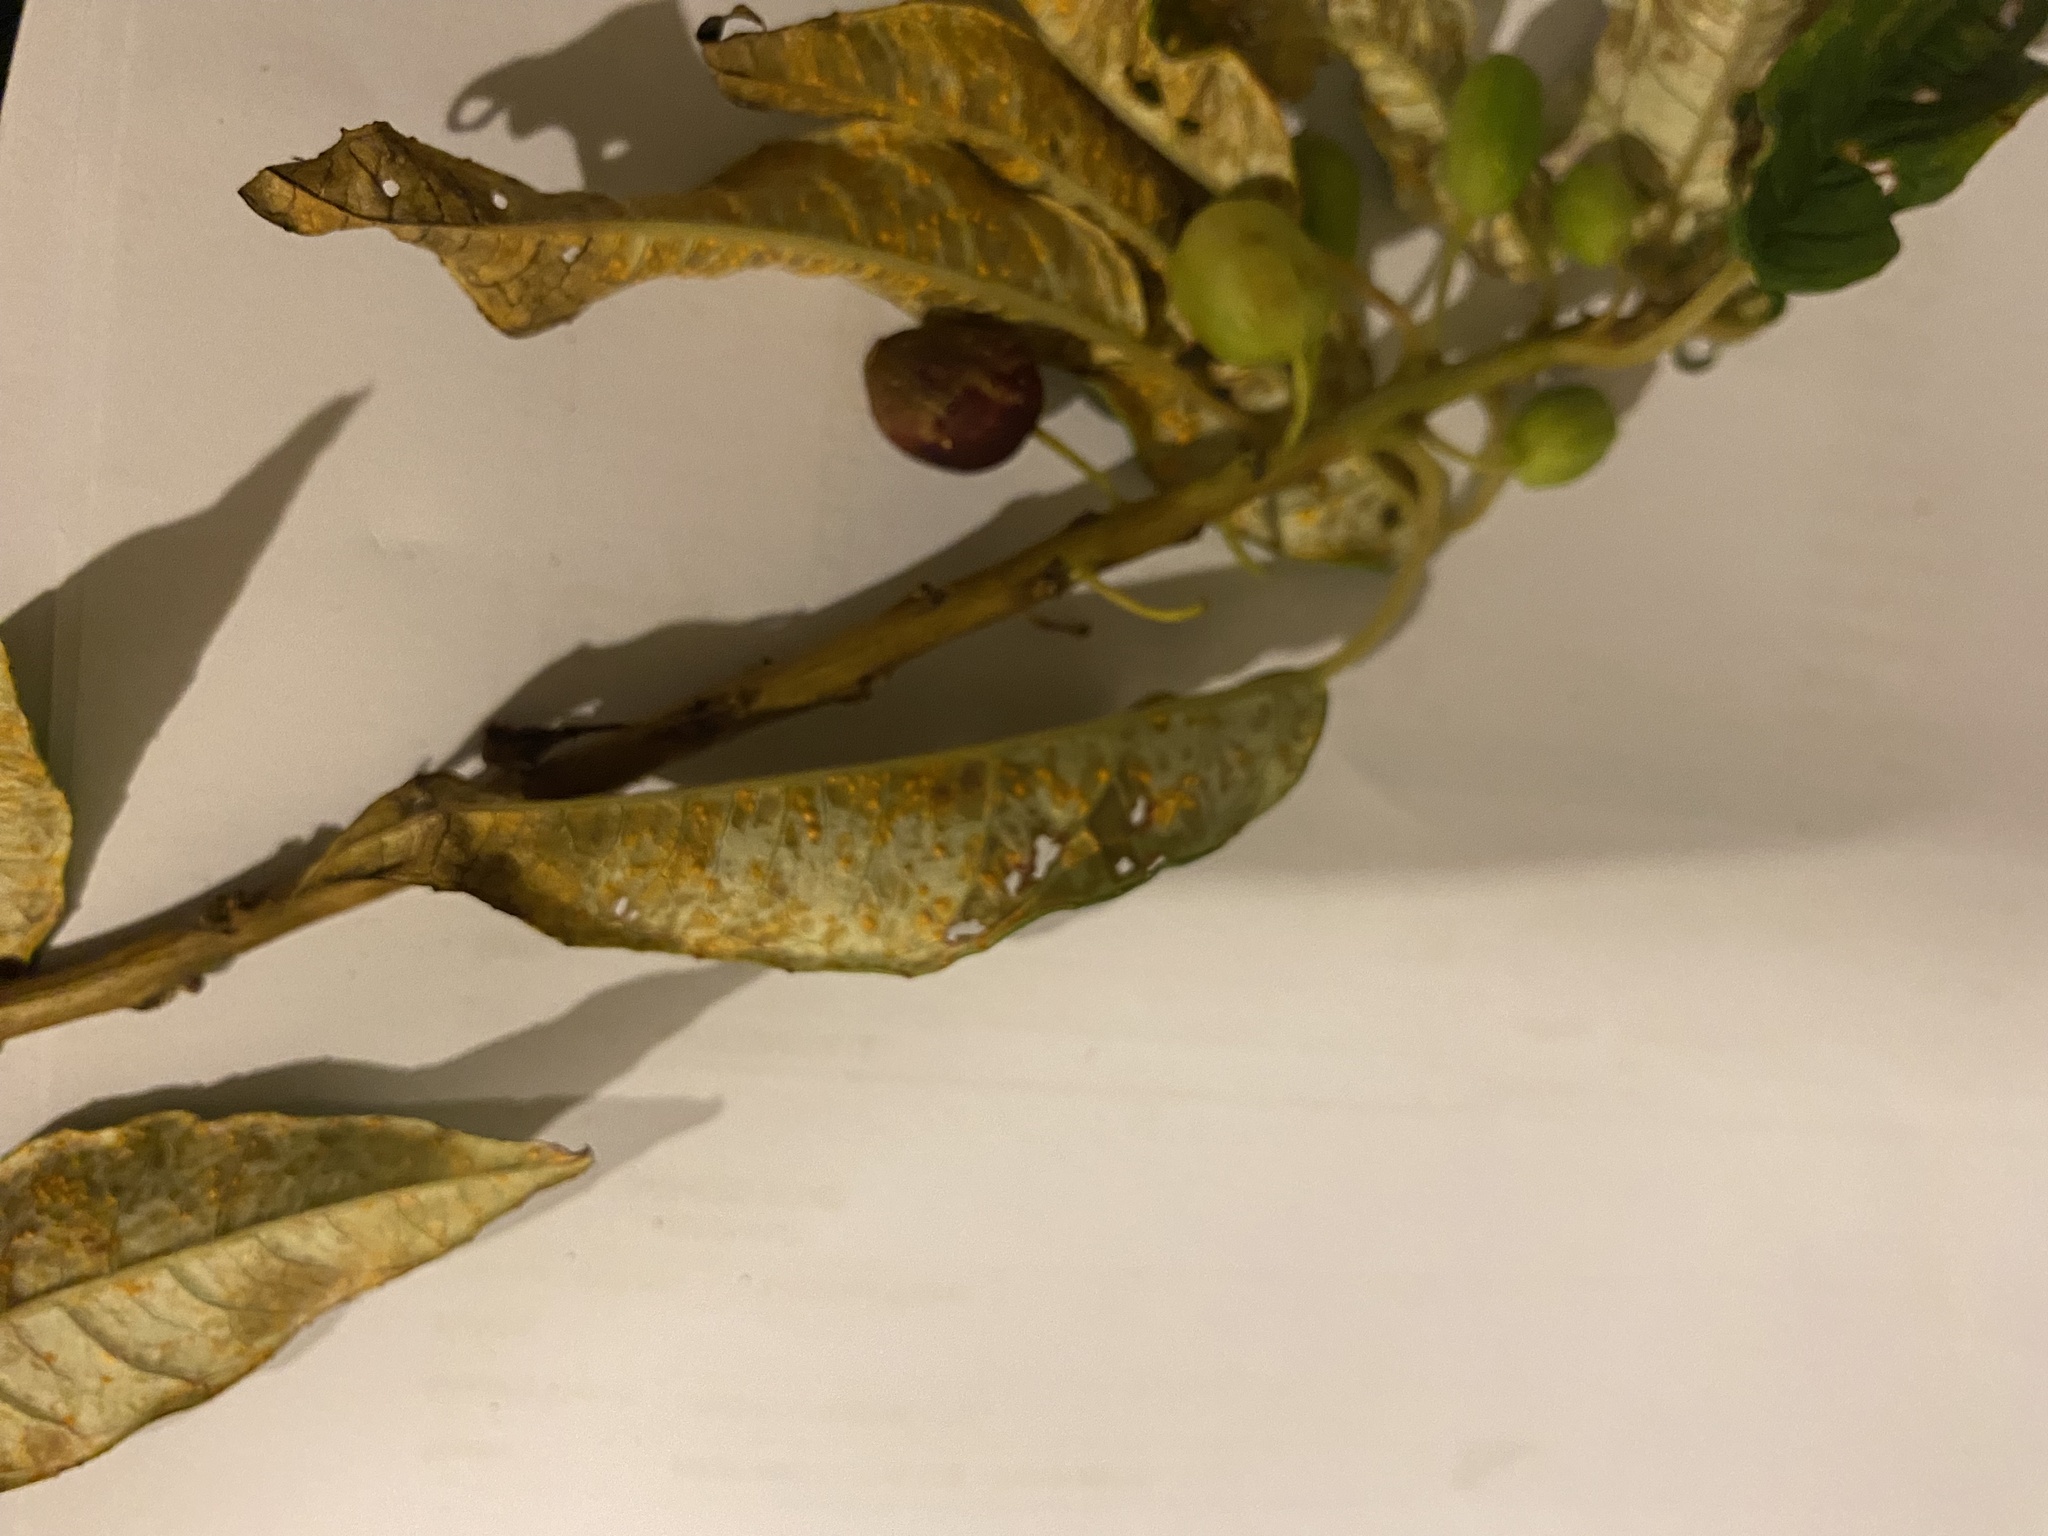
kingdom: Fungi
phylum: Basidiomycota
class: Pucciniomycetes
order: Pucciniales
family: Mikronegeriaceae
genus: Mikronegeria
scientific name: Mikronegeria fuchsiae
